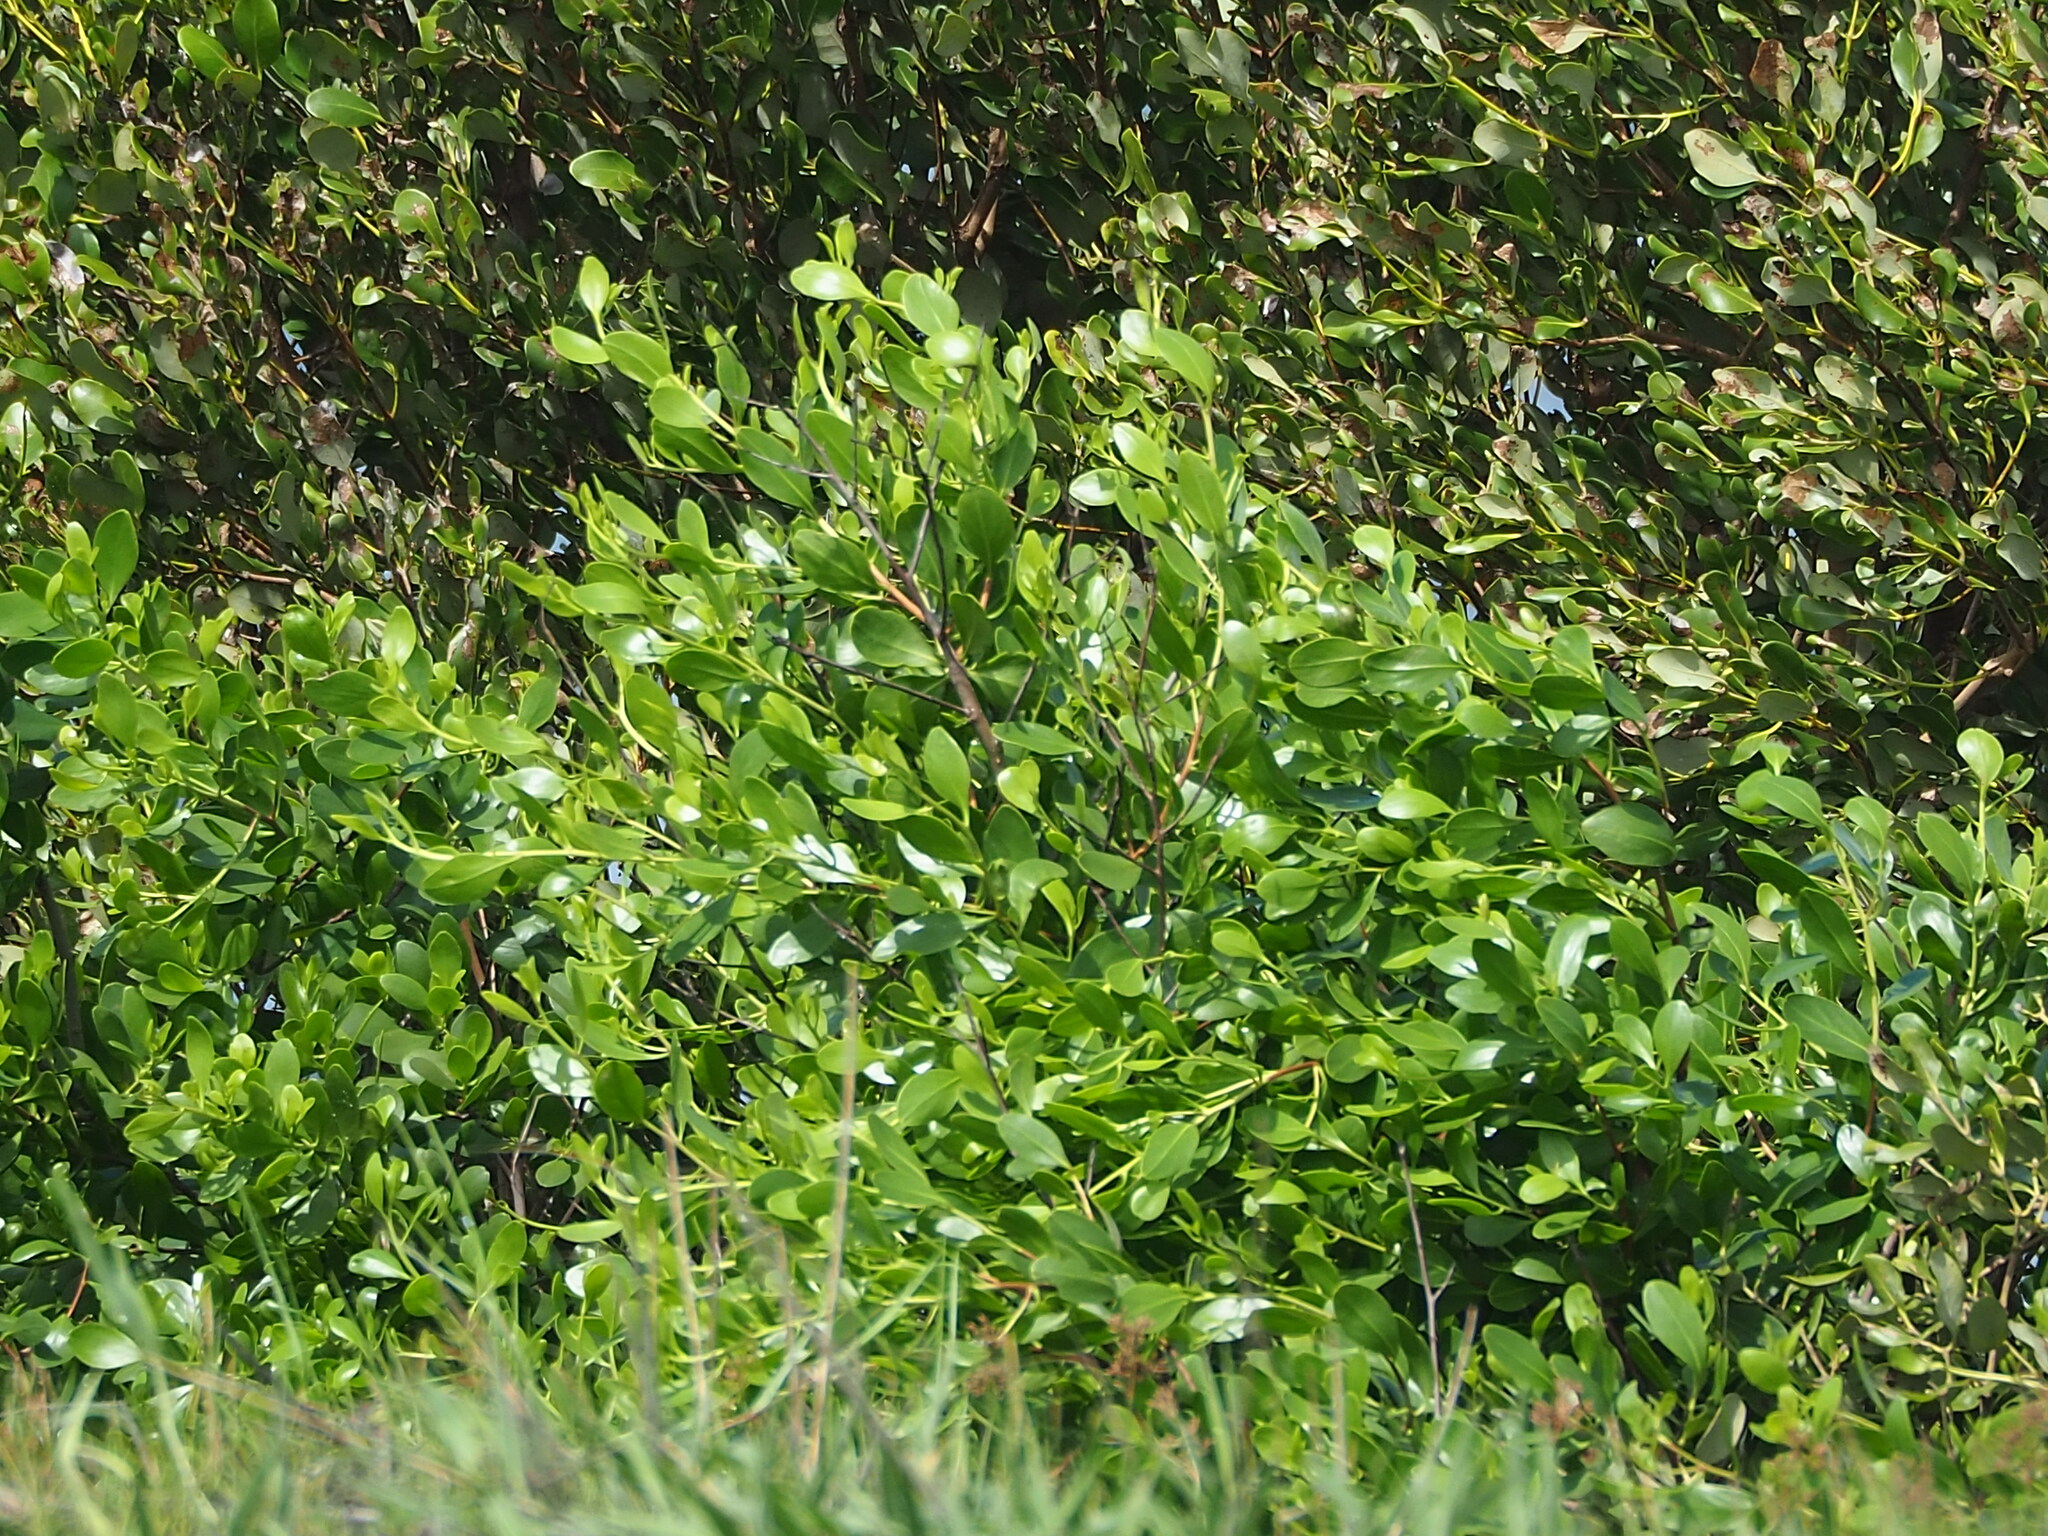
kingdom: Plantae
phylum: Tracheophyta
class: Magnoliopsida
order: Myrtales
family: Combretaceae
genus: Lumnitzera
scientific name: Lumnitzera racemosa
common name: White-flowered black mangrove
